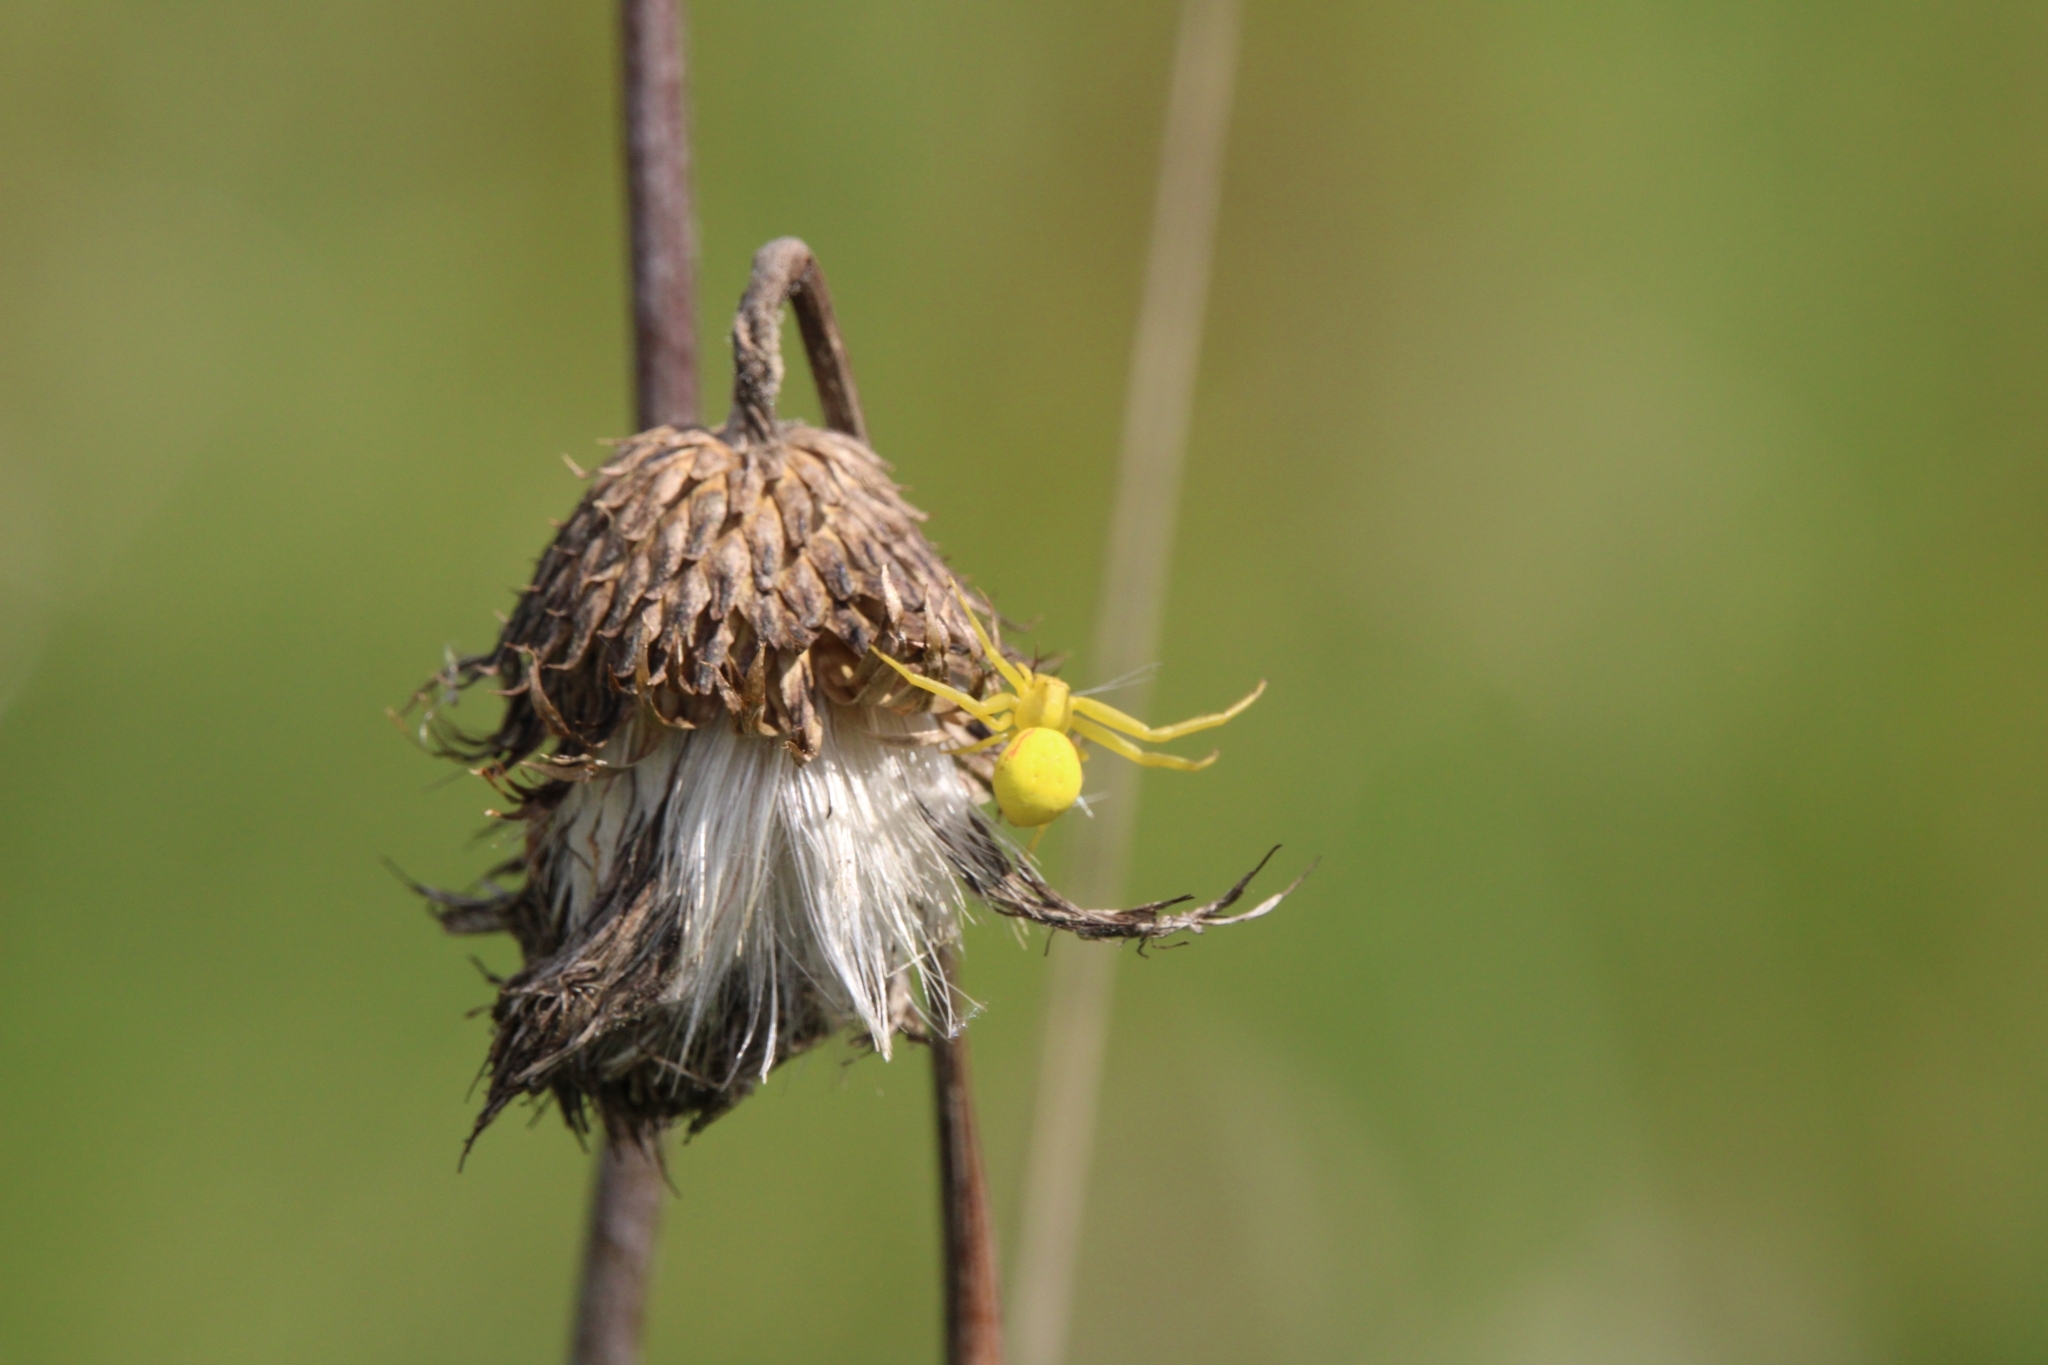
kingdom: Animalia
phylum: Arthropoda
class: Arachnida
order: Araneae
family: Thomisidae
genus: Misumena
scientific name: Misumena vatia
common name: Goldenrod crab spider
